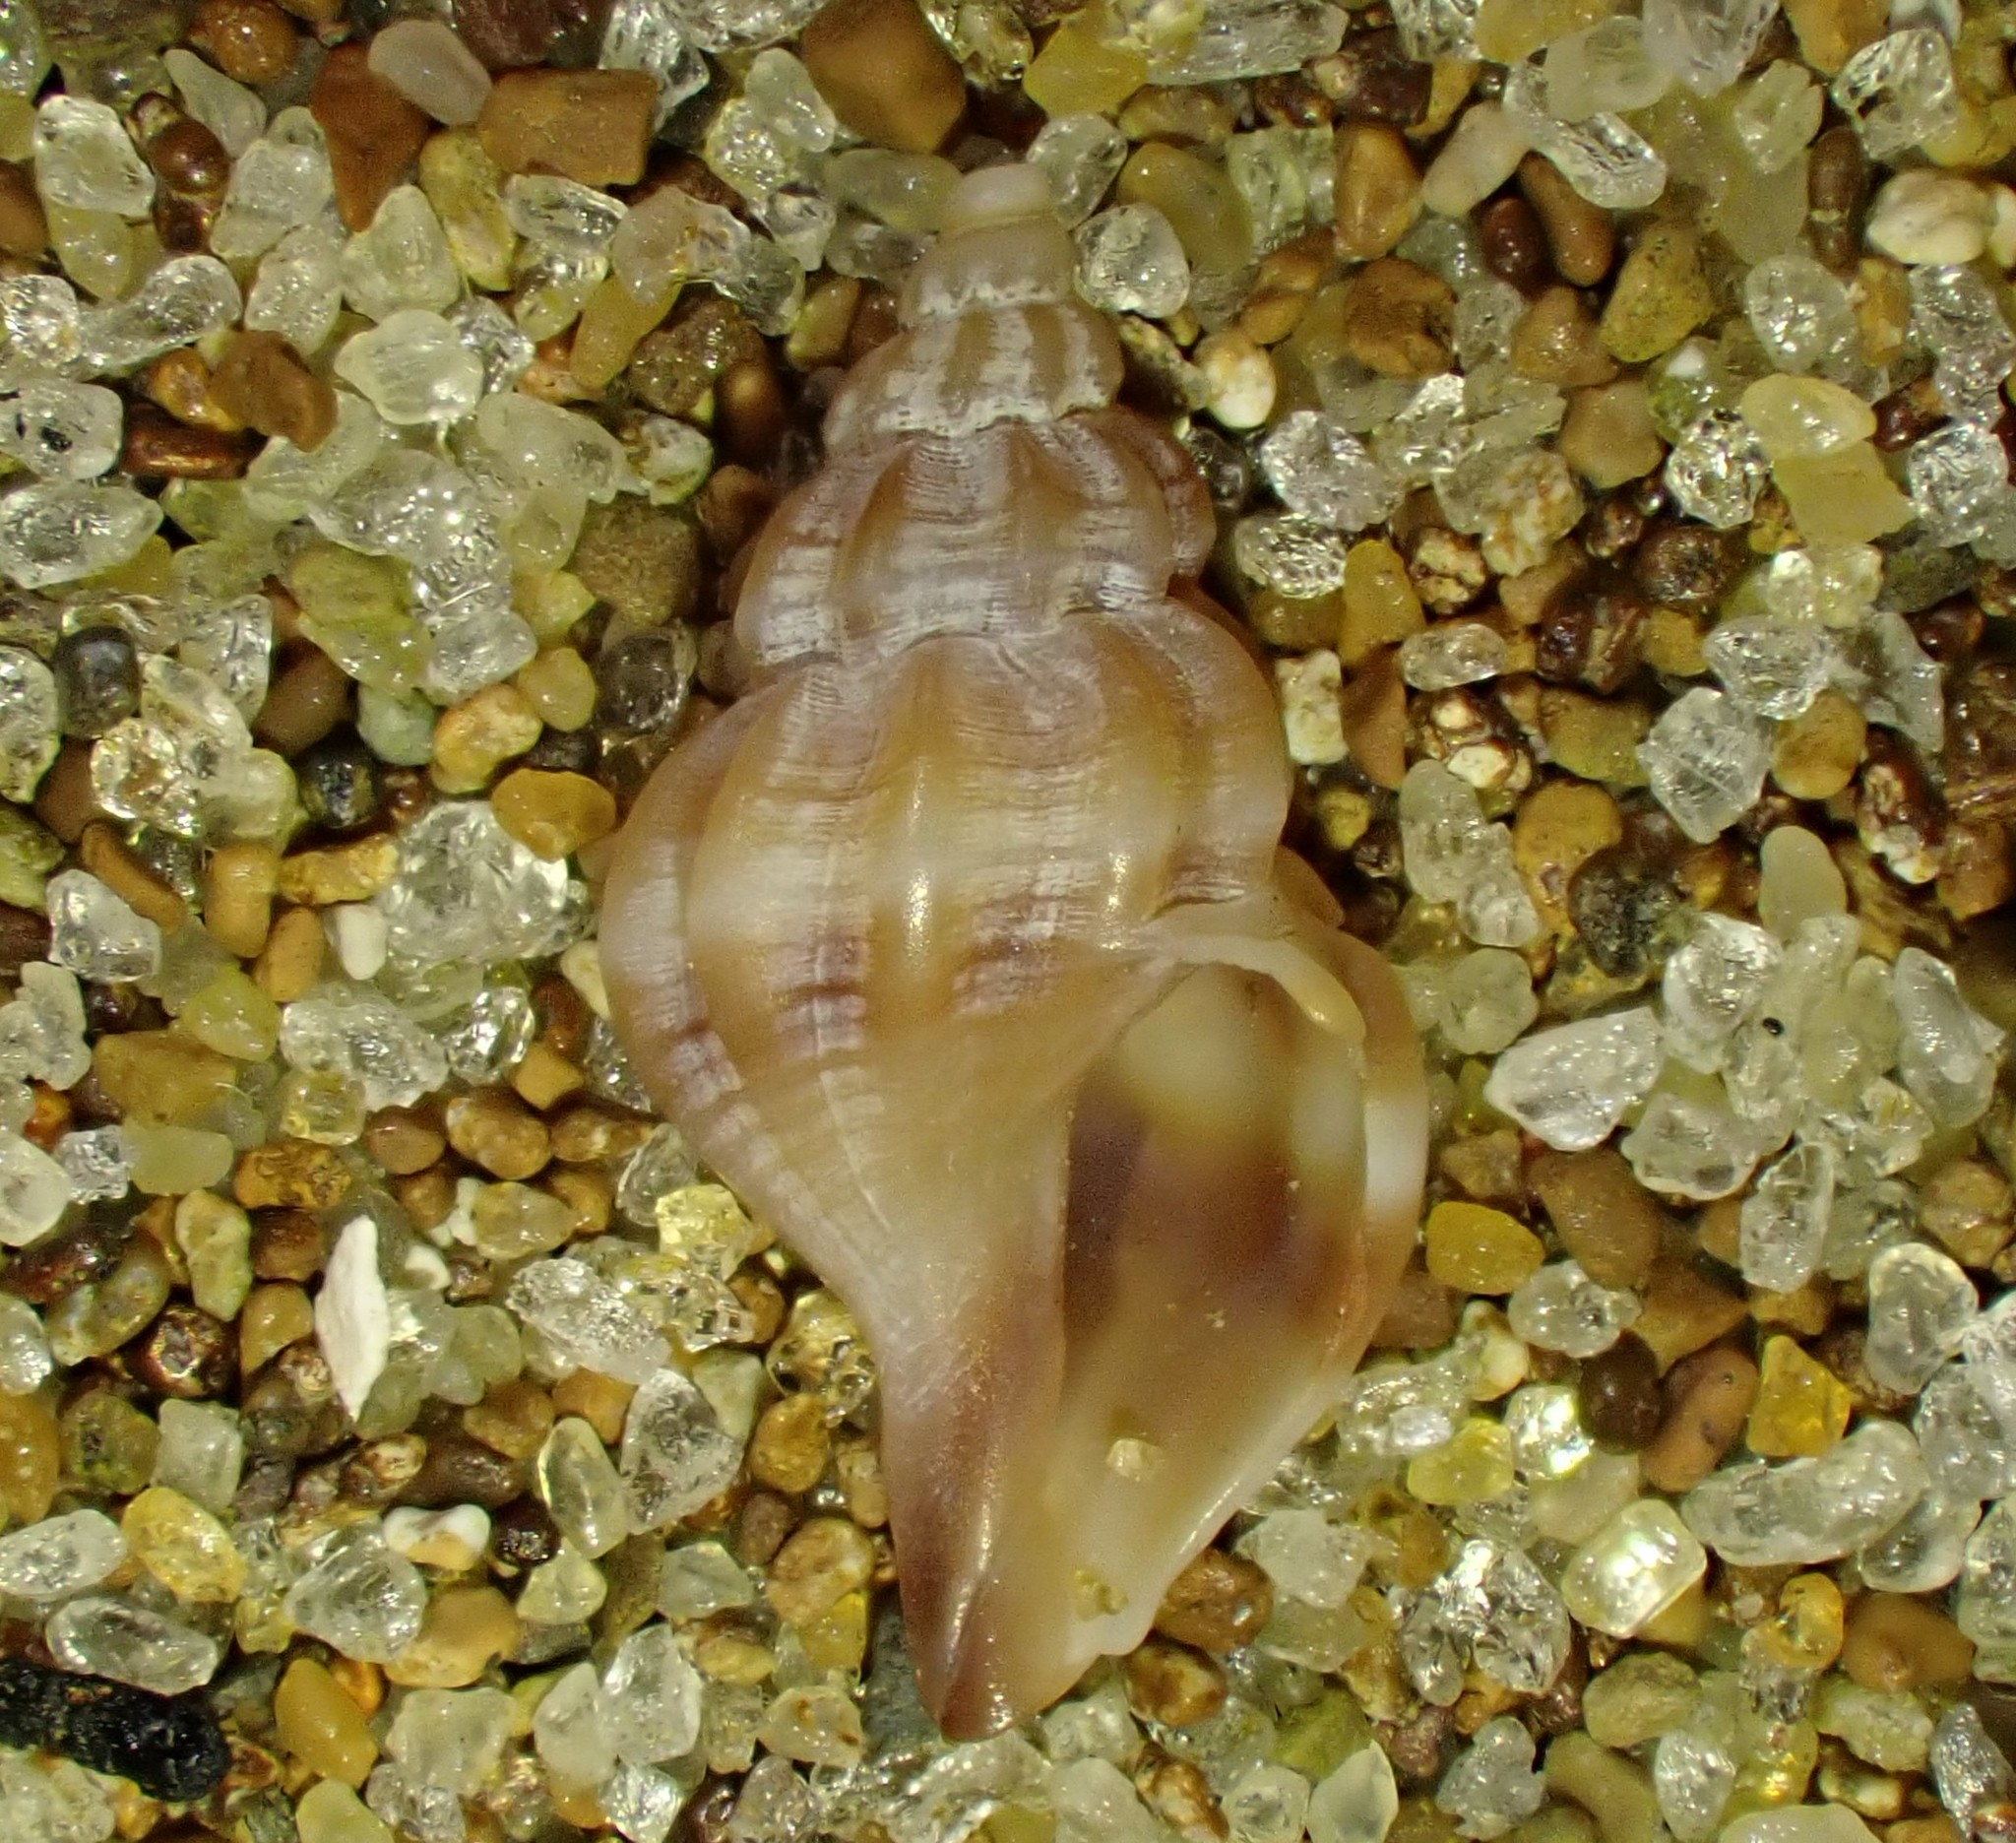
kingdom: Animalia
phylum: Mollusca
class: Gastropoda
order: Neogastropoda
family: Mangeliidae
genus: Neoguraleus
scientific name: Neoguraleus manukauensis
